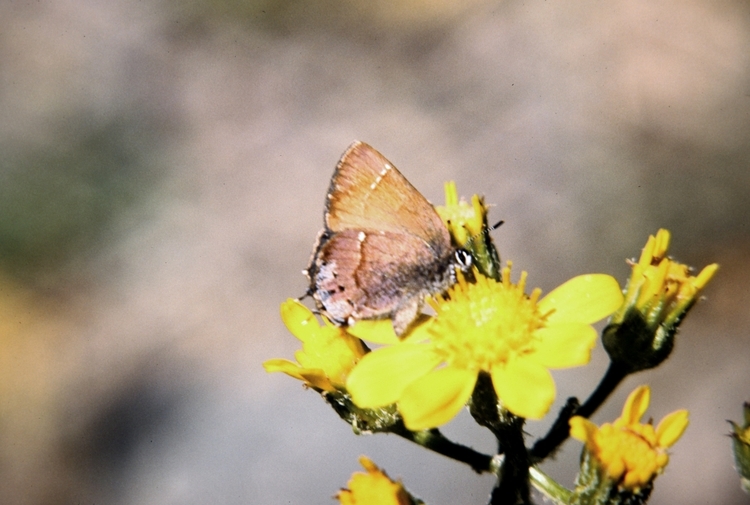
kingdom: Animalia
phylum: Arthropoda
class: Insecta
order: Lepidoptera
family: Lycaenidae
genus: Mitoura
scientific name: Mitoura nelsoni
